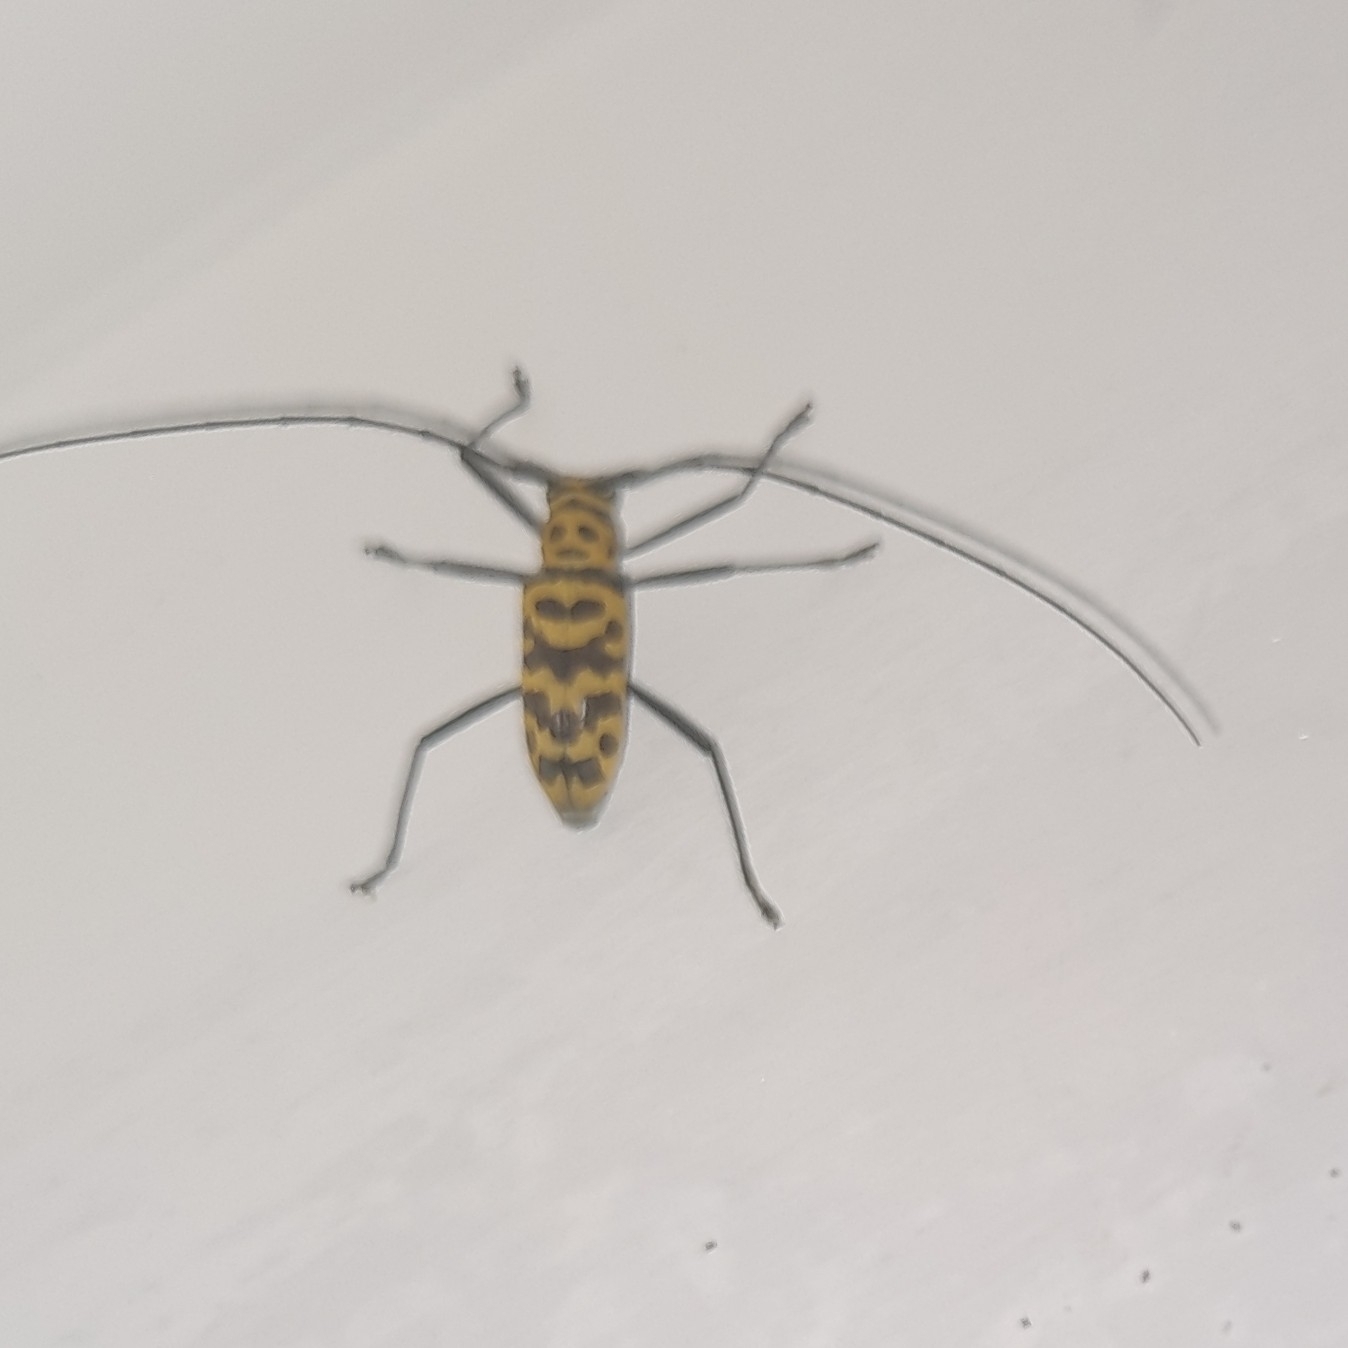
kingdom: Animalia
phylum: Arthropoda
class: Insecta
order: Coleoptera
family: Cerambycidae
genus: Gerania
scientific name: Gerania boscii
